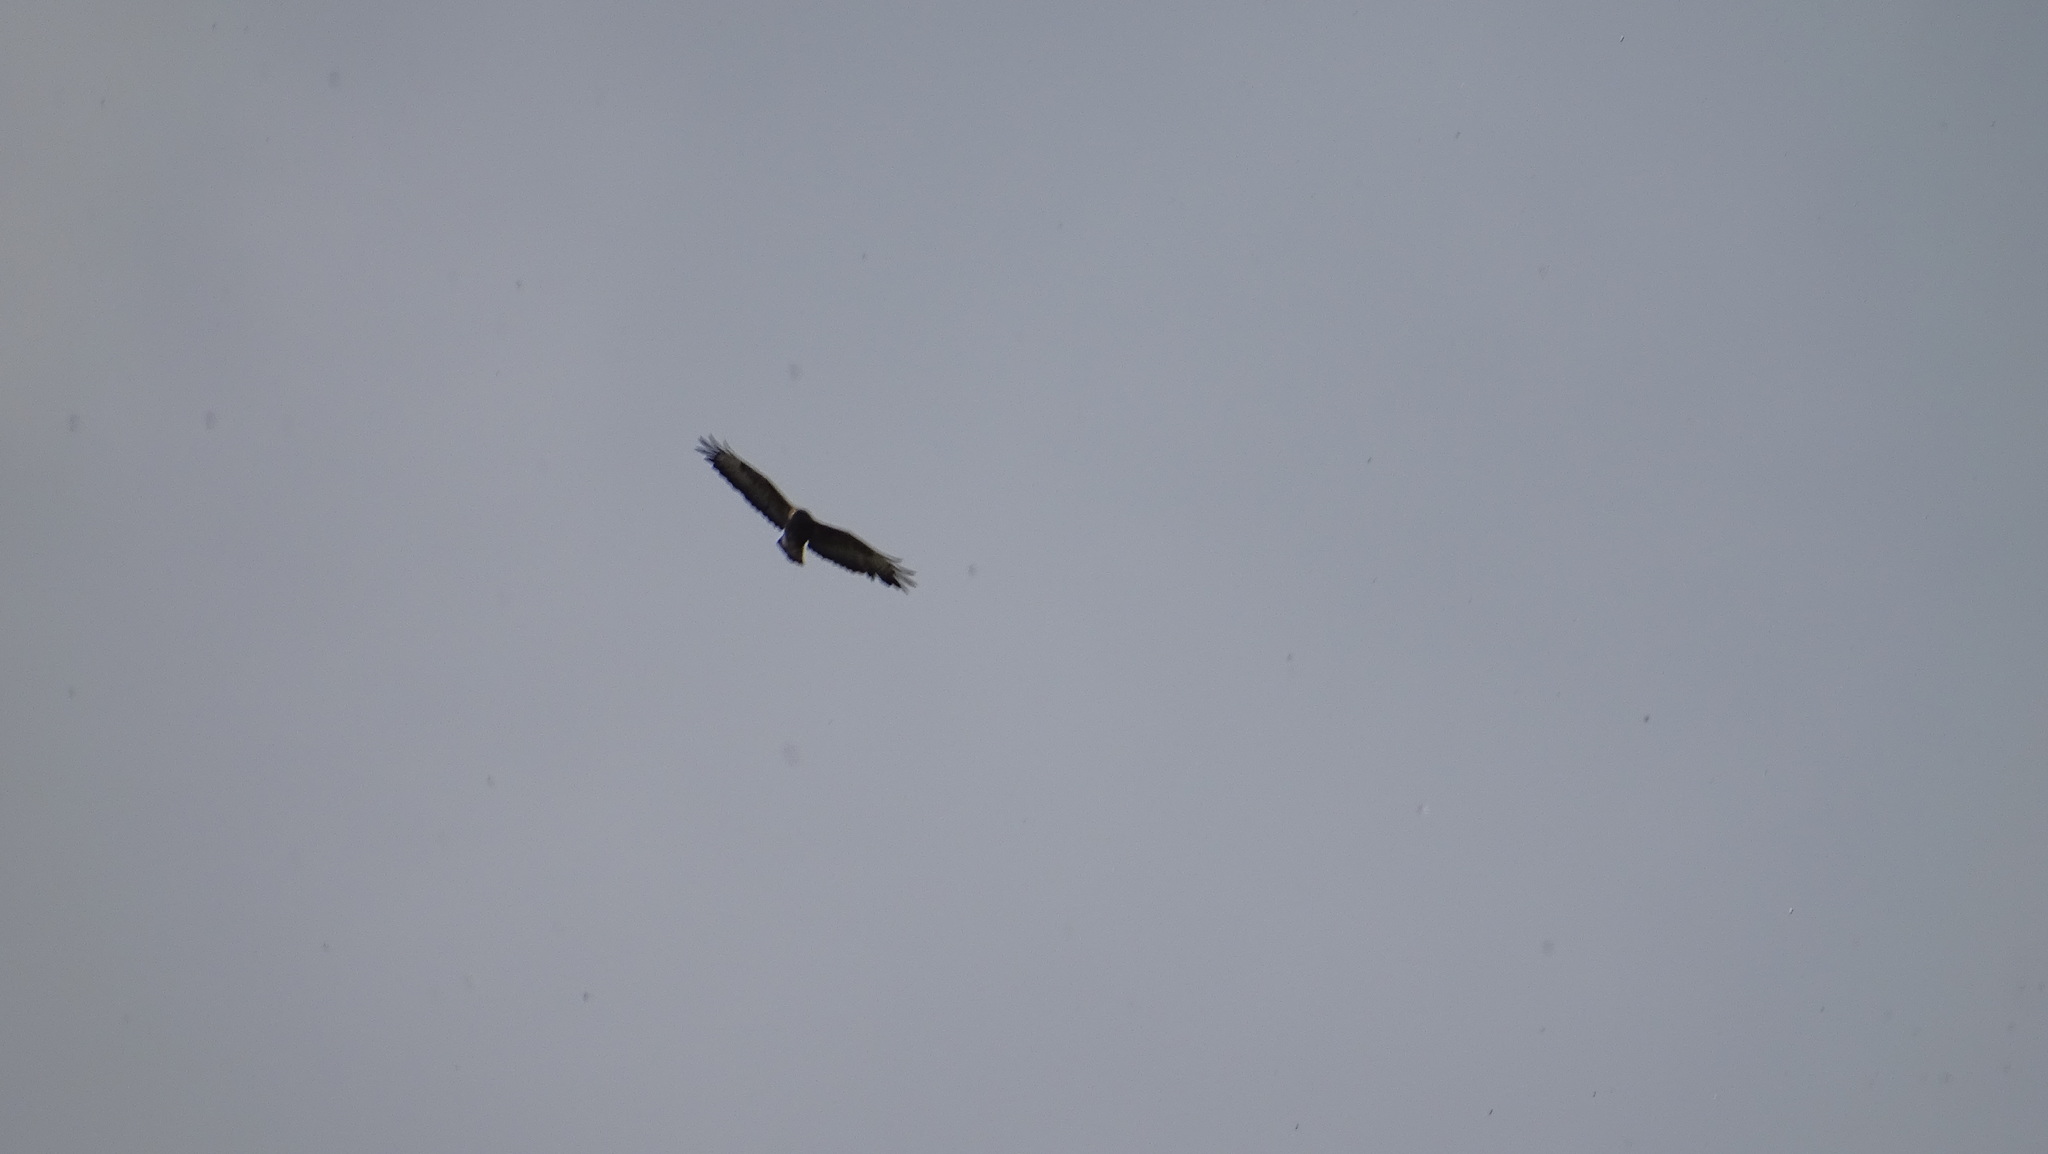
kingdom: Animalia
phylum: Chordata
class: Aves
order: Accipitriformes
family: Accipitridae
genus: Buteo
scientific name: Buteo buteo
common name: Common buzzard
